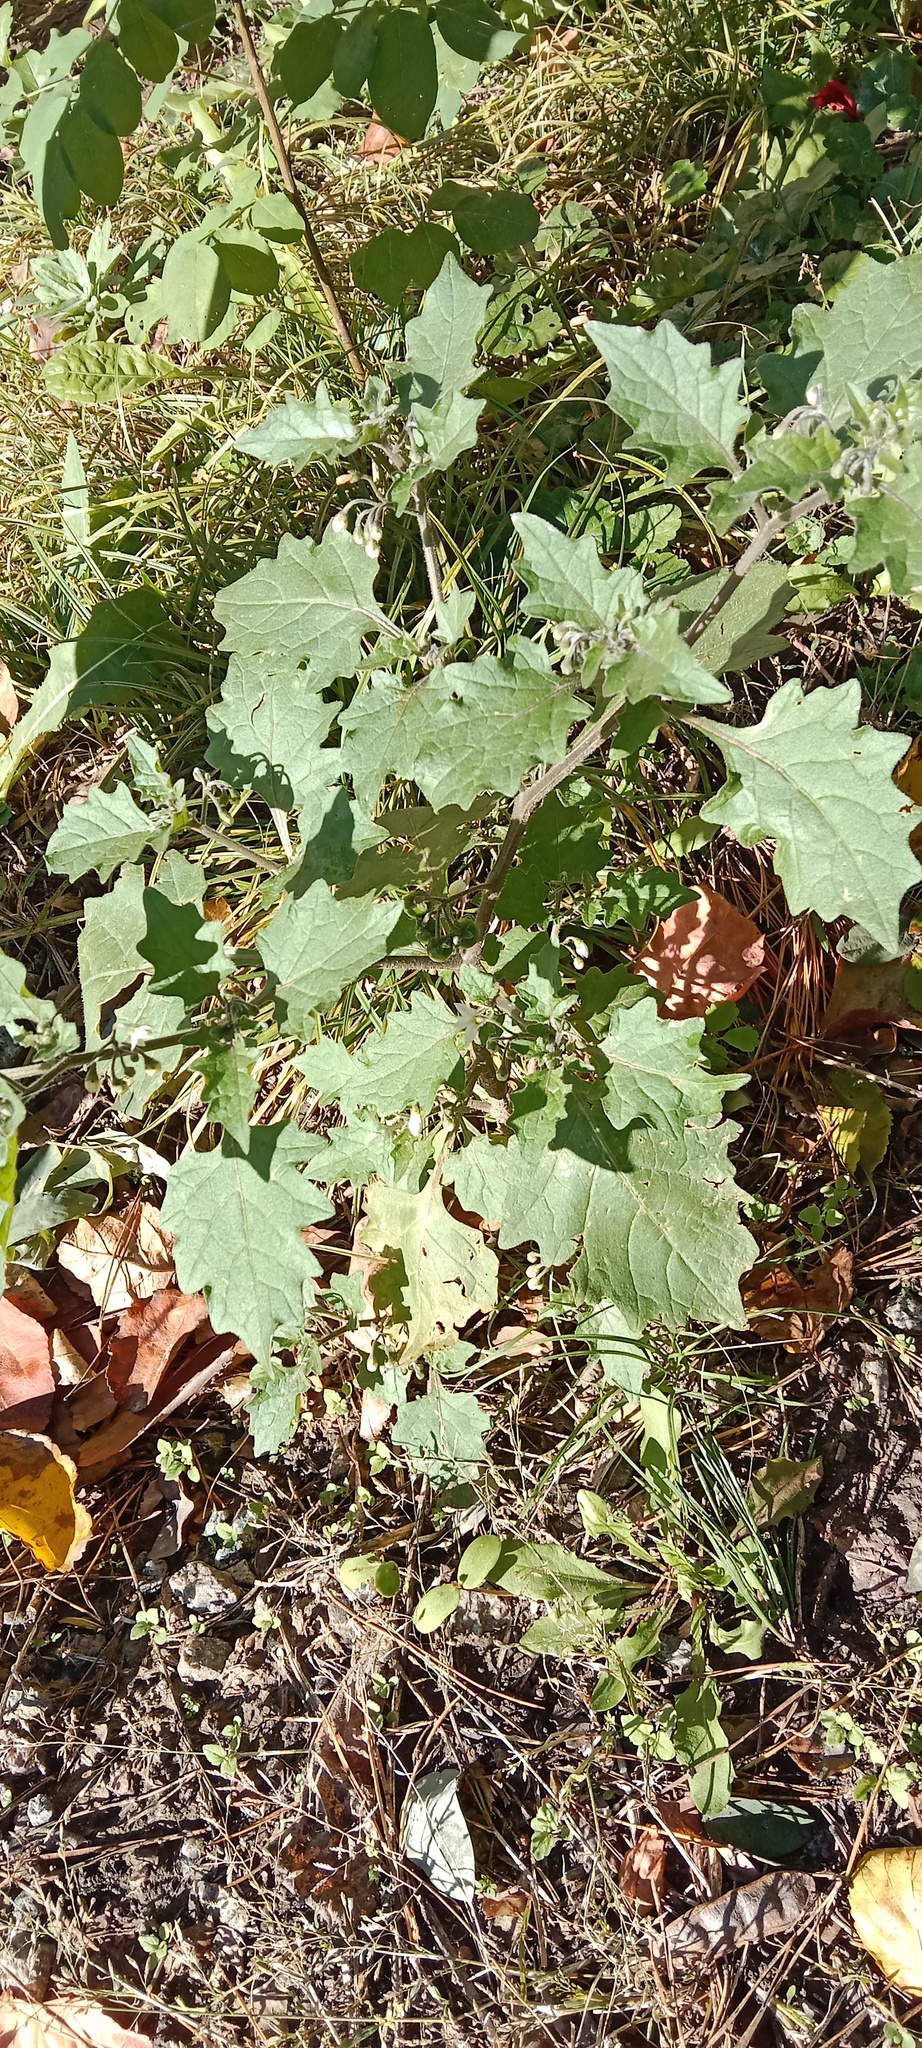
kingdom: Plantae
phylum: Tracheophyta
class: Magnoliopsida
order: Solanales
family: Solanaceae
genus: Solanum
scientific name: Solanum decipiens
